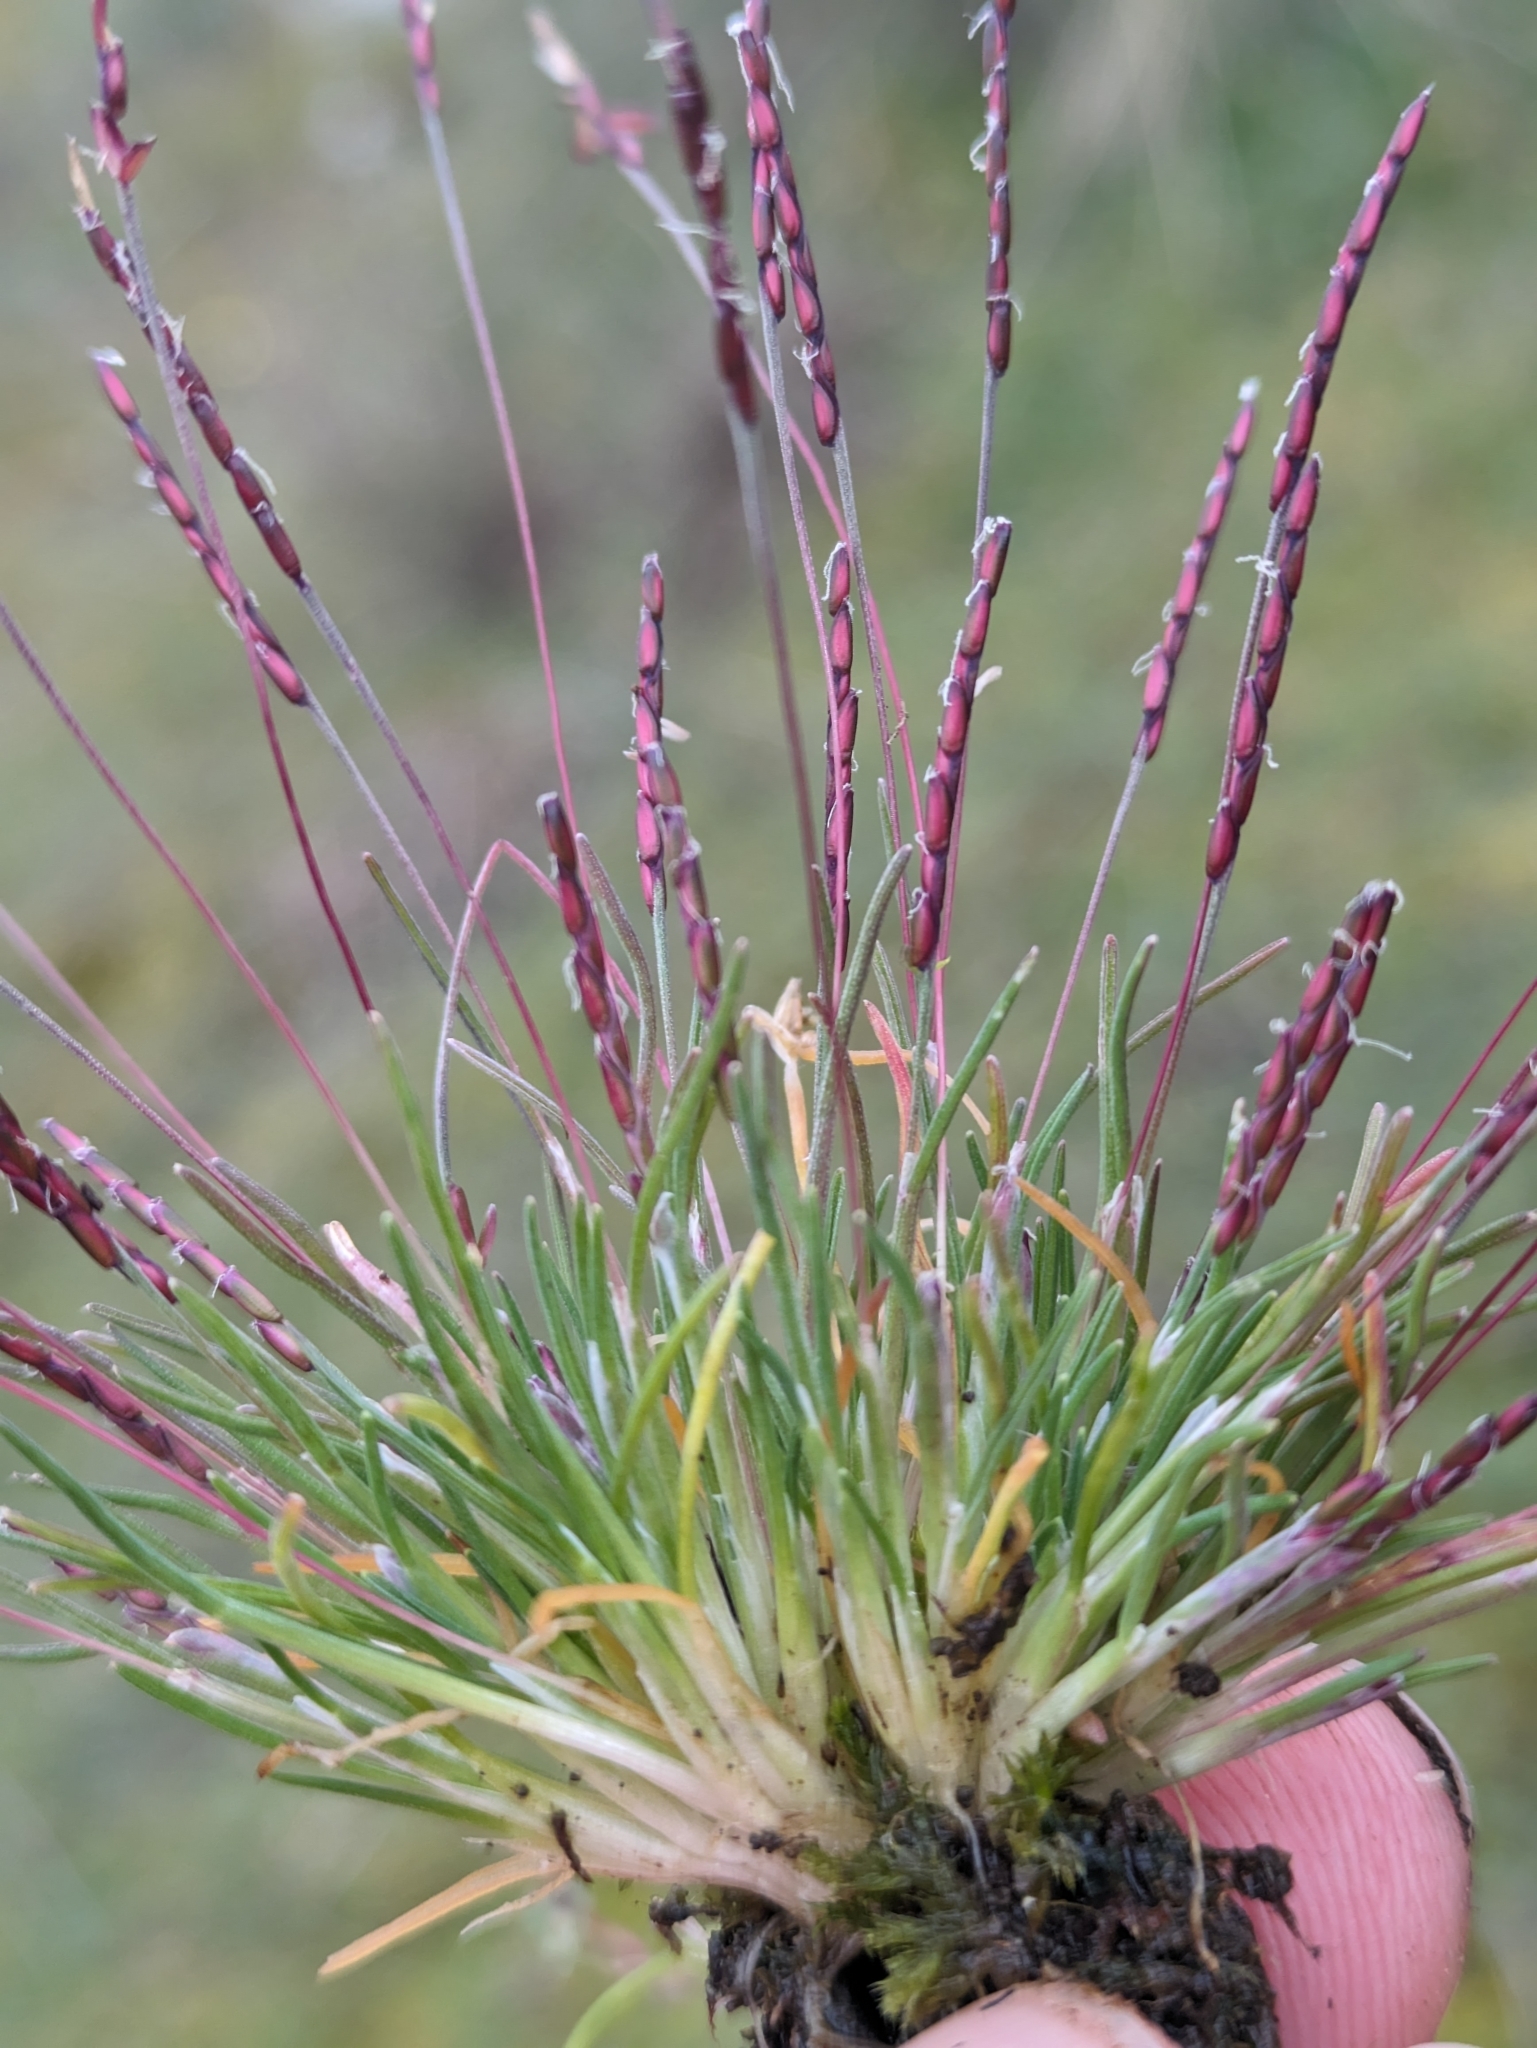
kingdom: Plantae
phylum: Tracheophyta
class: Liliopsida
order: Poales
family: Poaceae
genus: Mibora
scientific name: Mibora minima
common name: Early sand-grass
